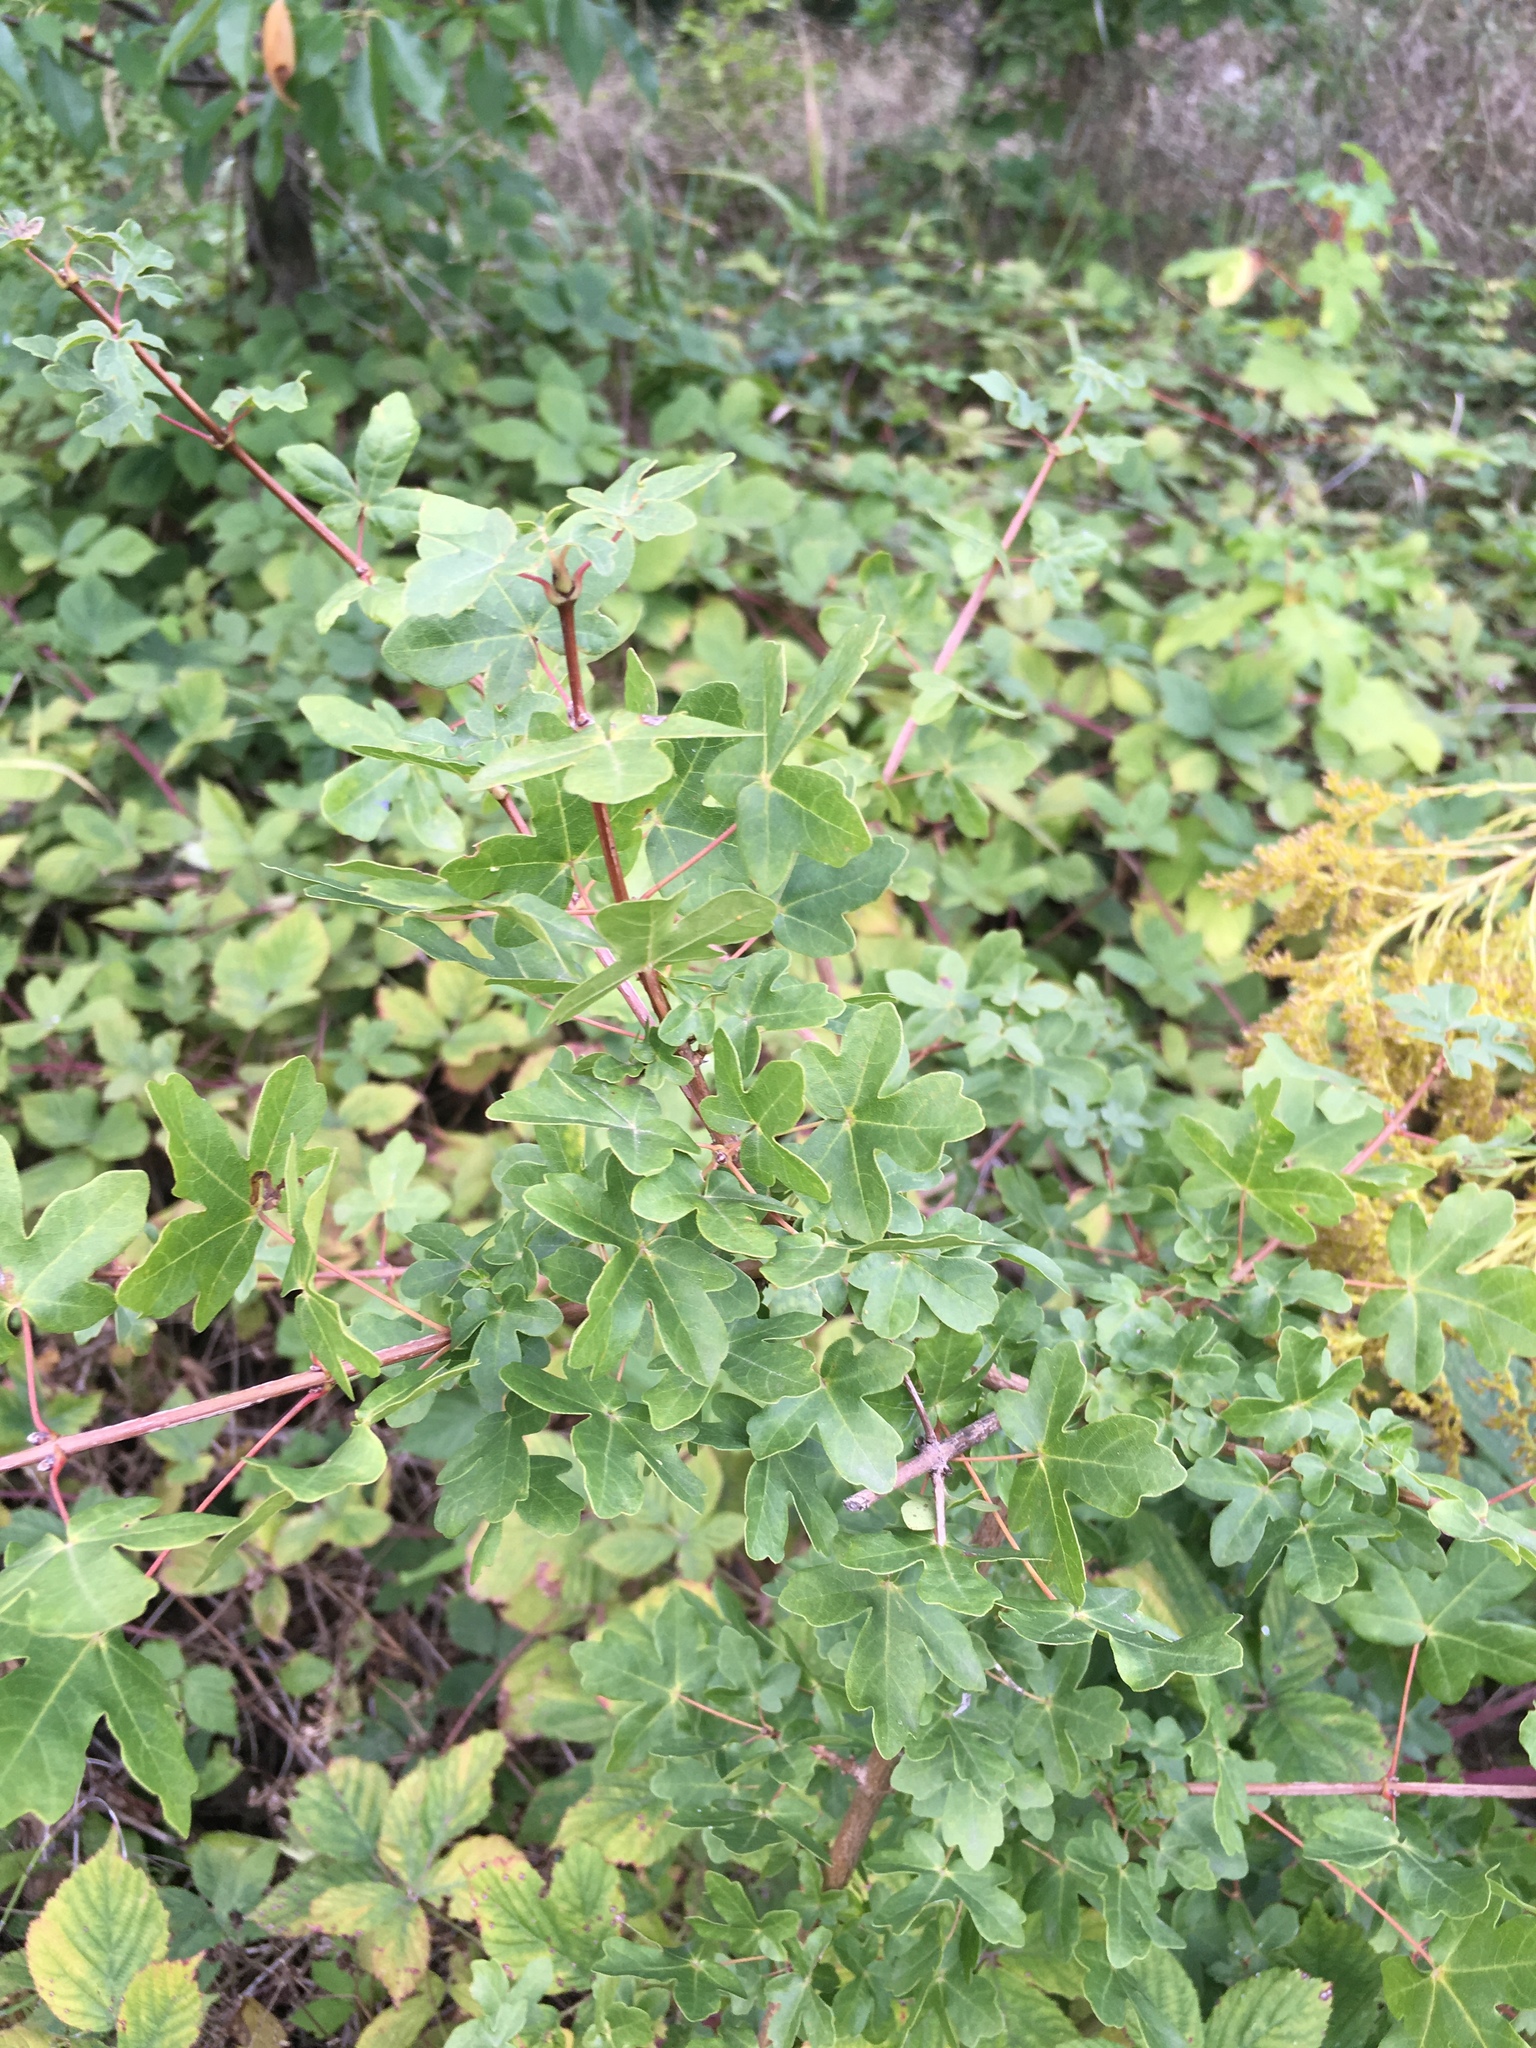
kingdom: Plantae
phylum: Tracheophyta
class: Magnoliopsida
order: Sapindales
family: Sapindaceae
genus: Acer
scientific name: Acer campestre
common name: Field maple
